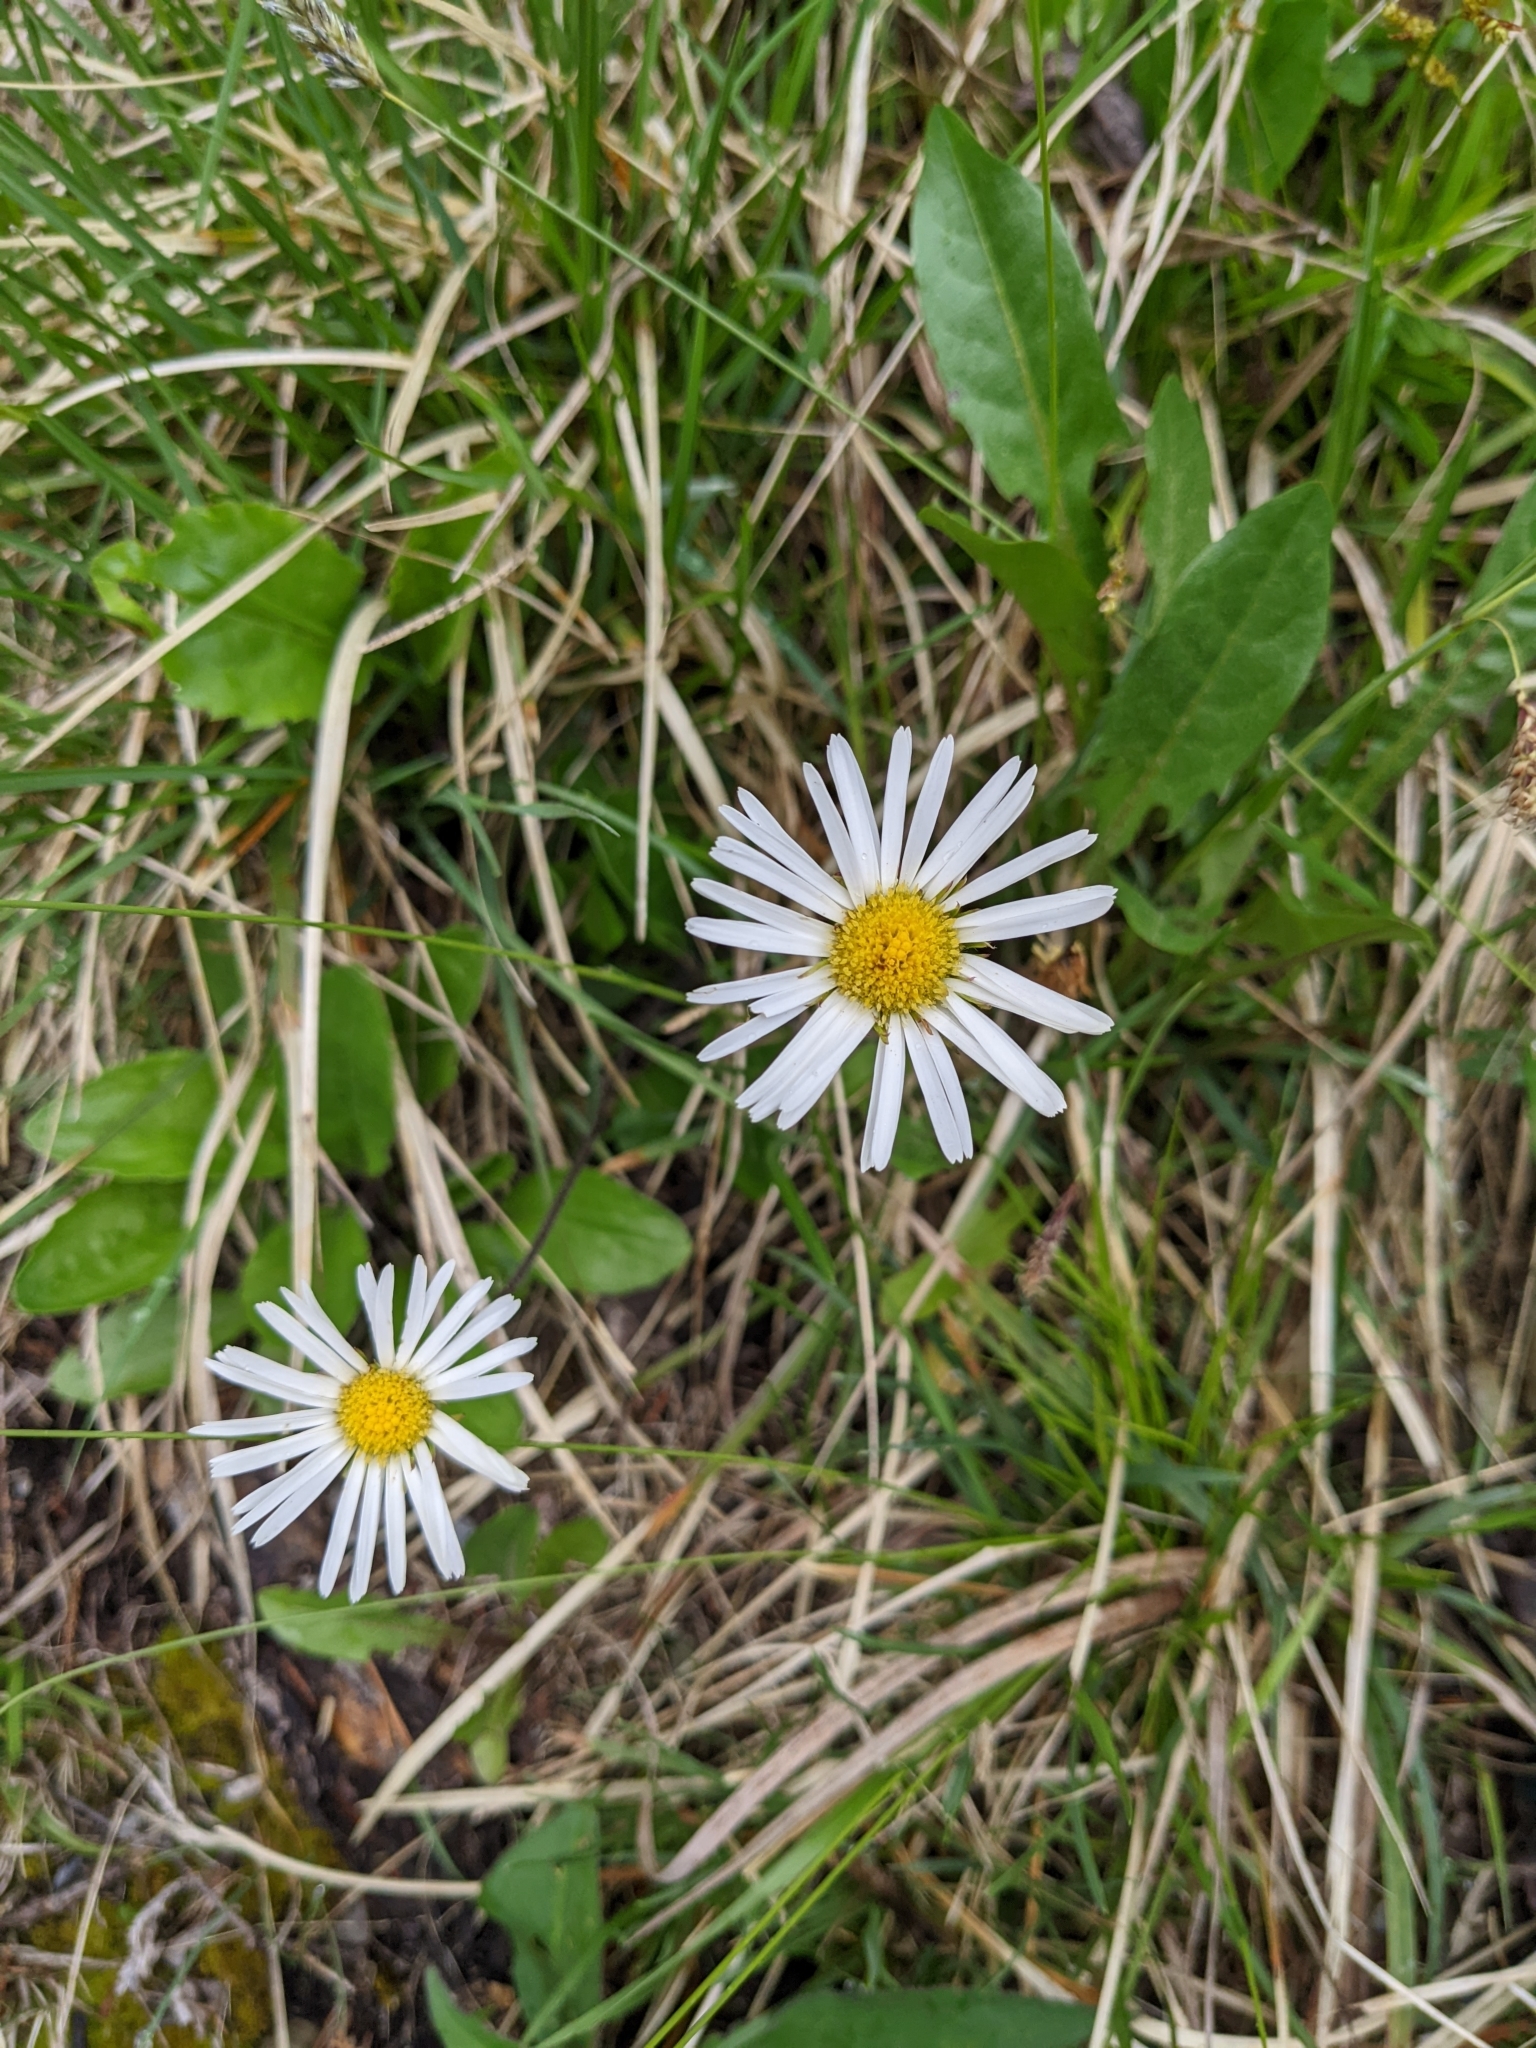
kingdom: Plantae
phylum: Tracheophyta
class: Magnoliopsida
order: Asterales
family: Asteraceae
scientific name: Asteraceae
